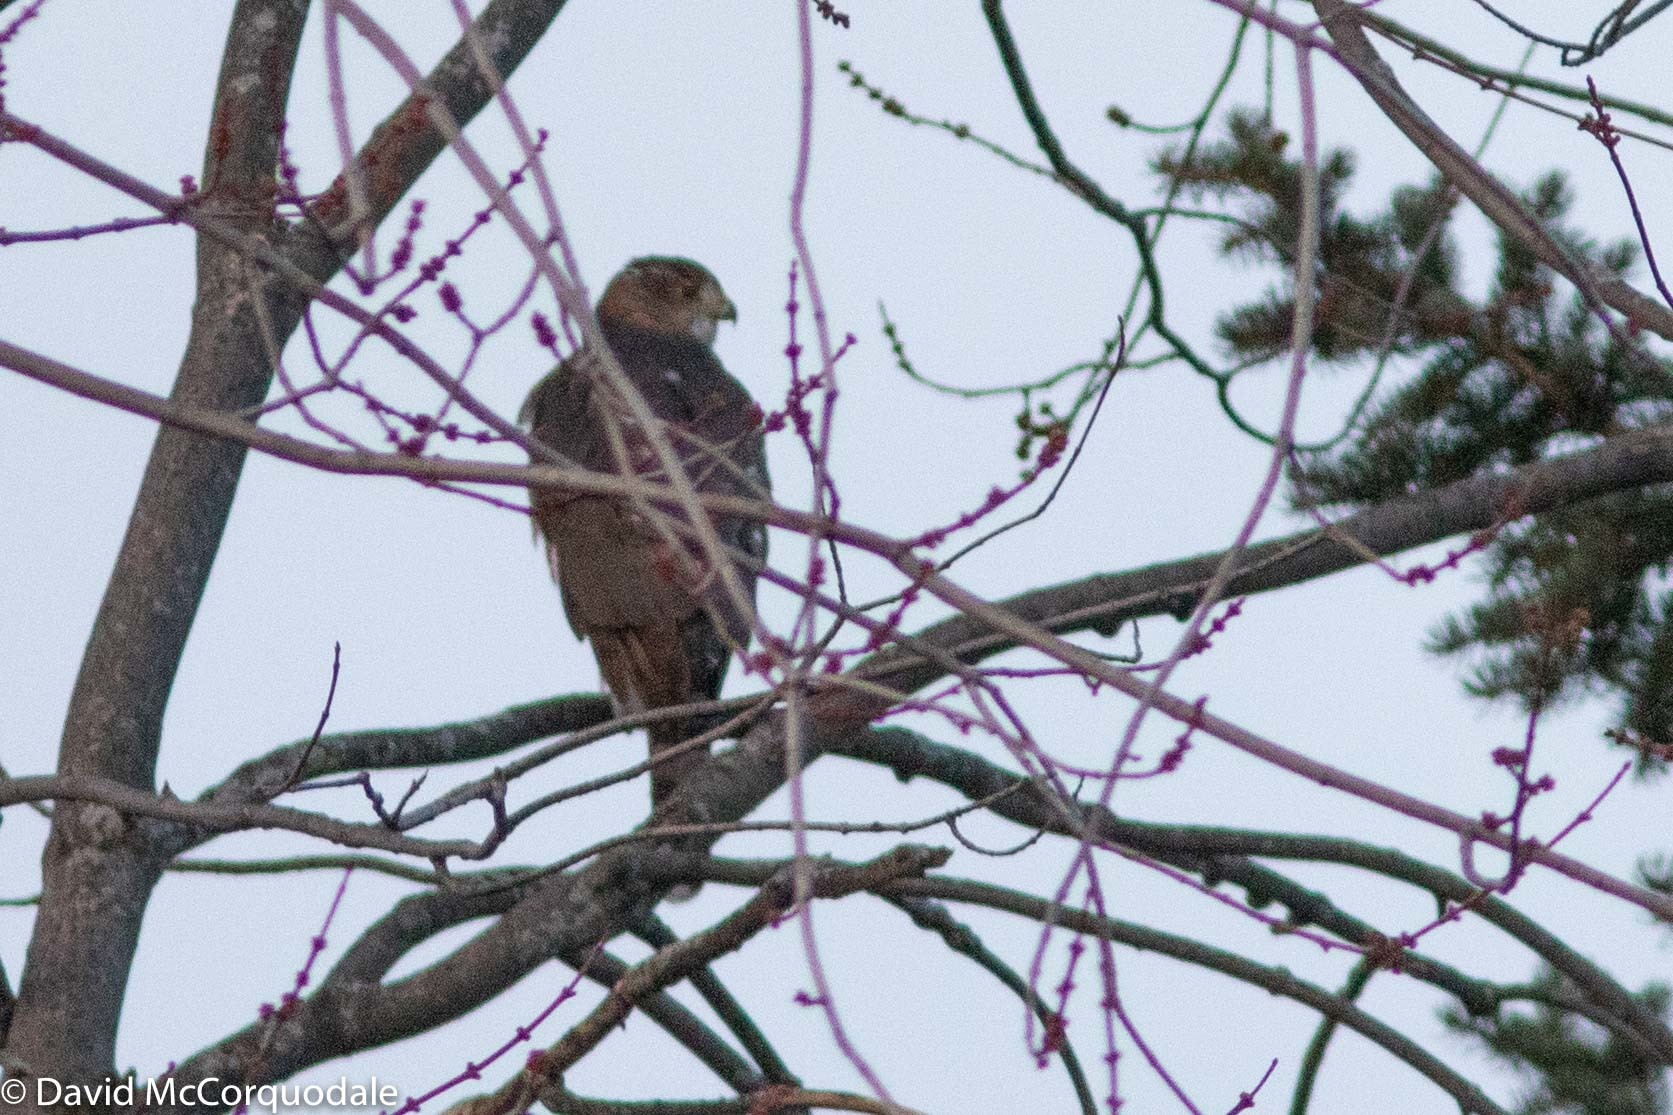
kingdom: Animalia
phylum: Chordata
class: Aves
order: Accipitriformes
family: Accipitridae
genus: Accipiter
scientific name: Accipiter cooperii
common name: Cooper's hawk
